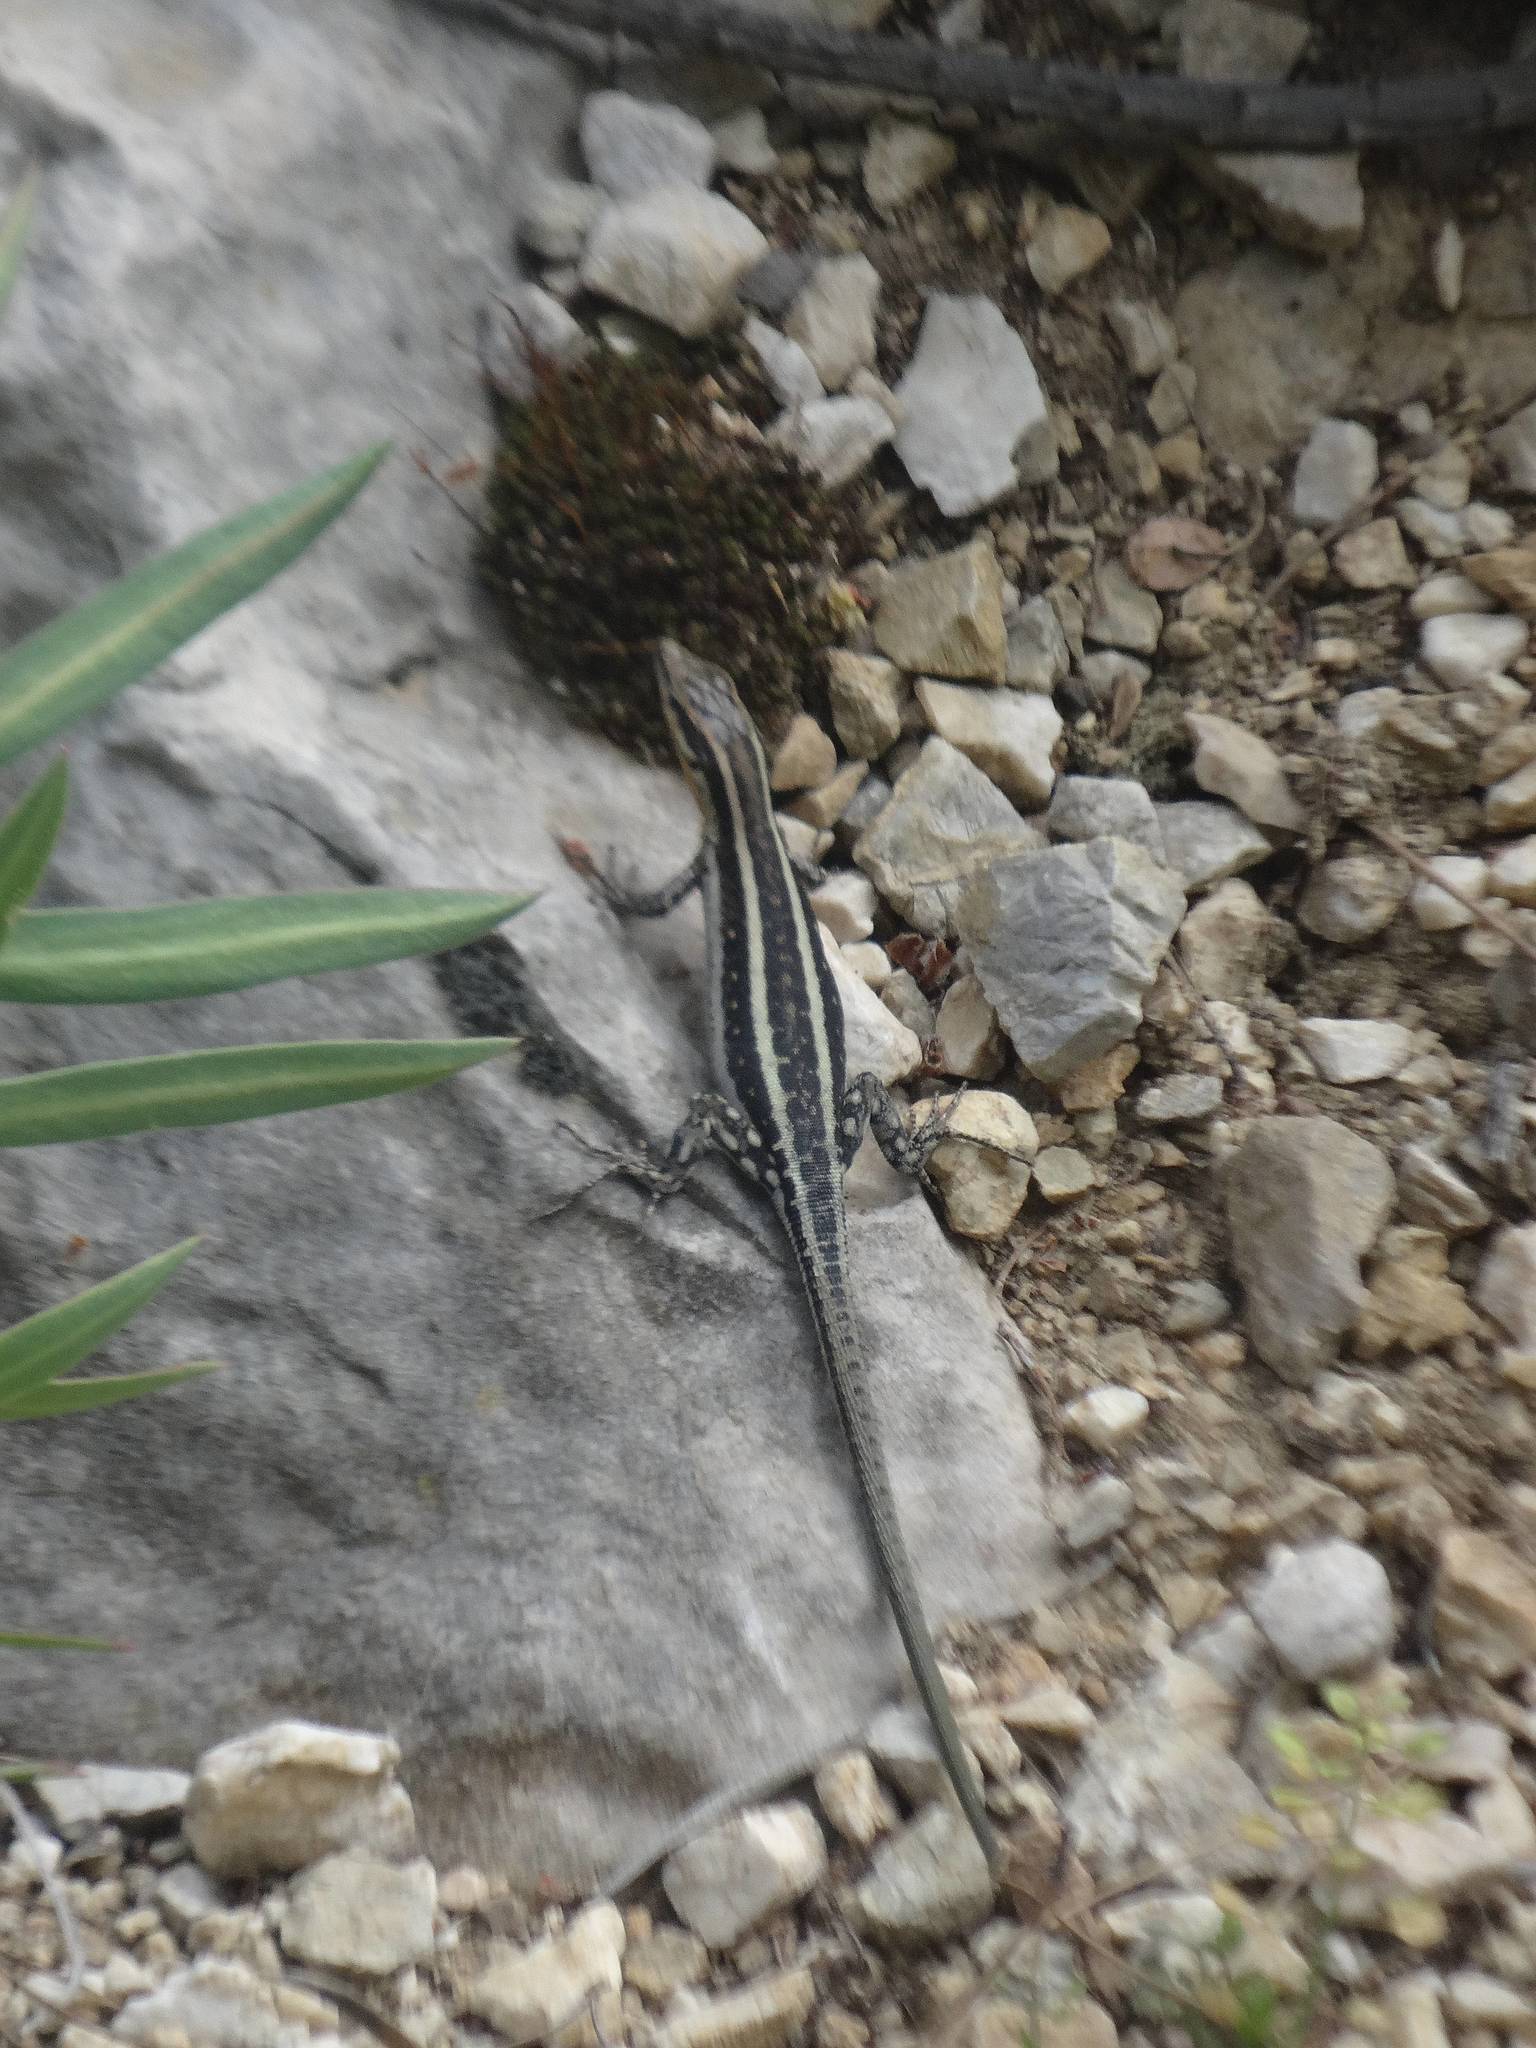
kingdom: Animalia
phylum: Chordata
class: Squamata
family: Lacertidae
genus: Anatololacerta
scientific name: Anatololacerta finikensis
